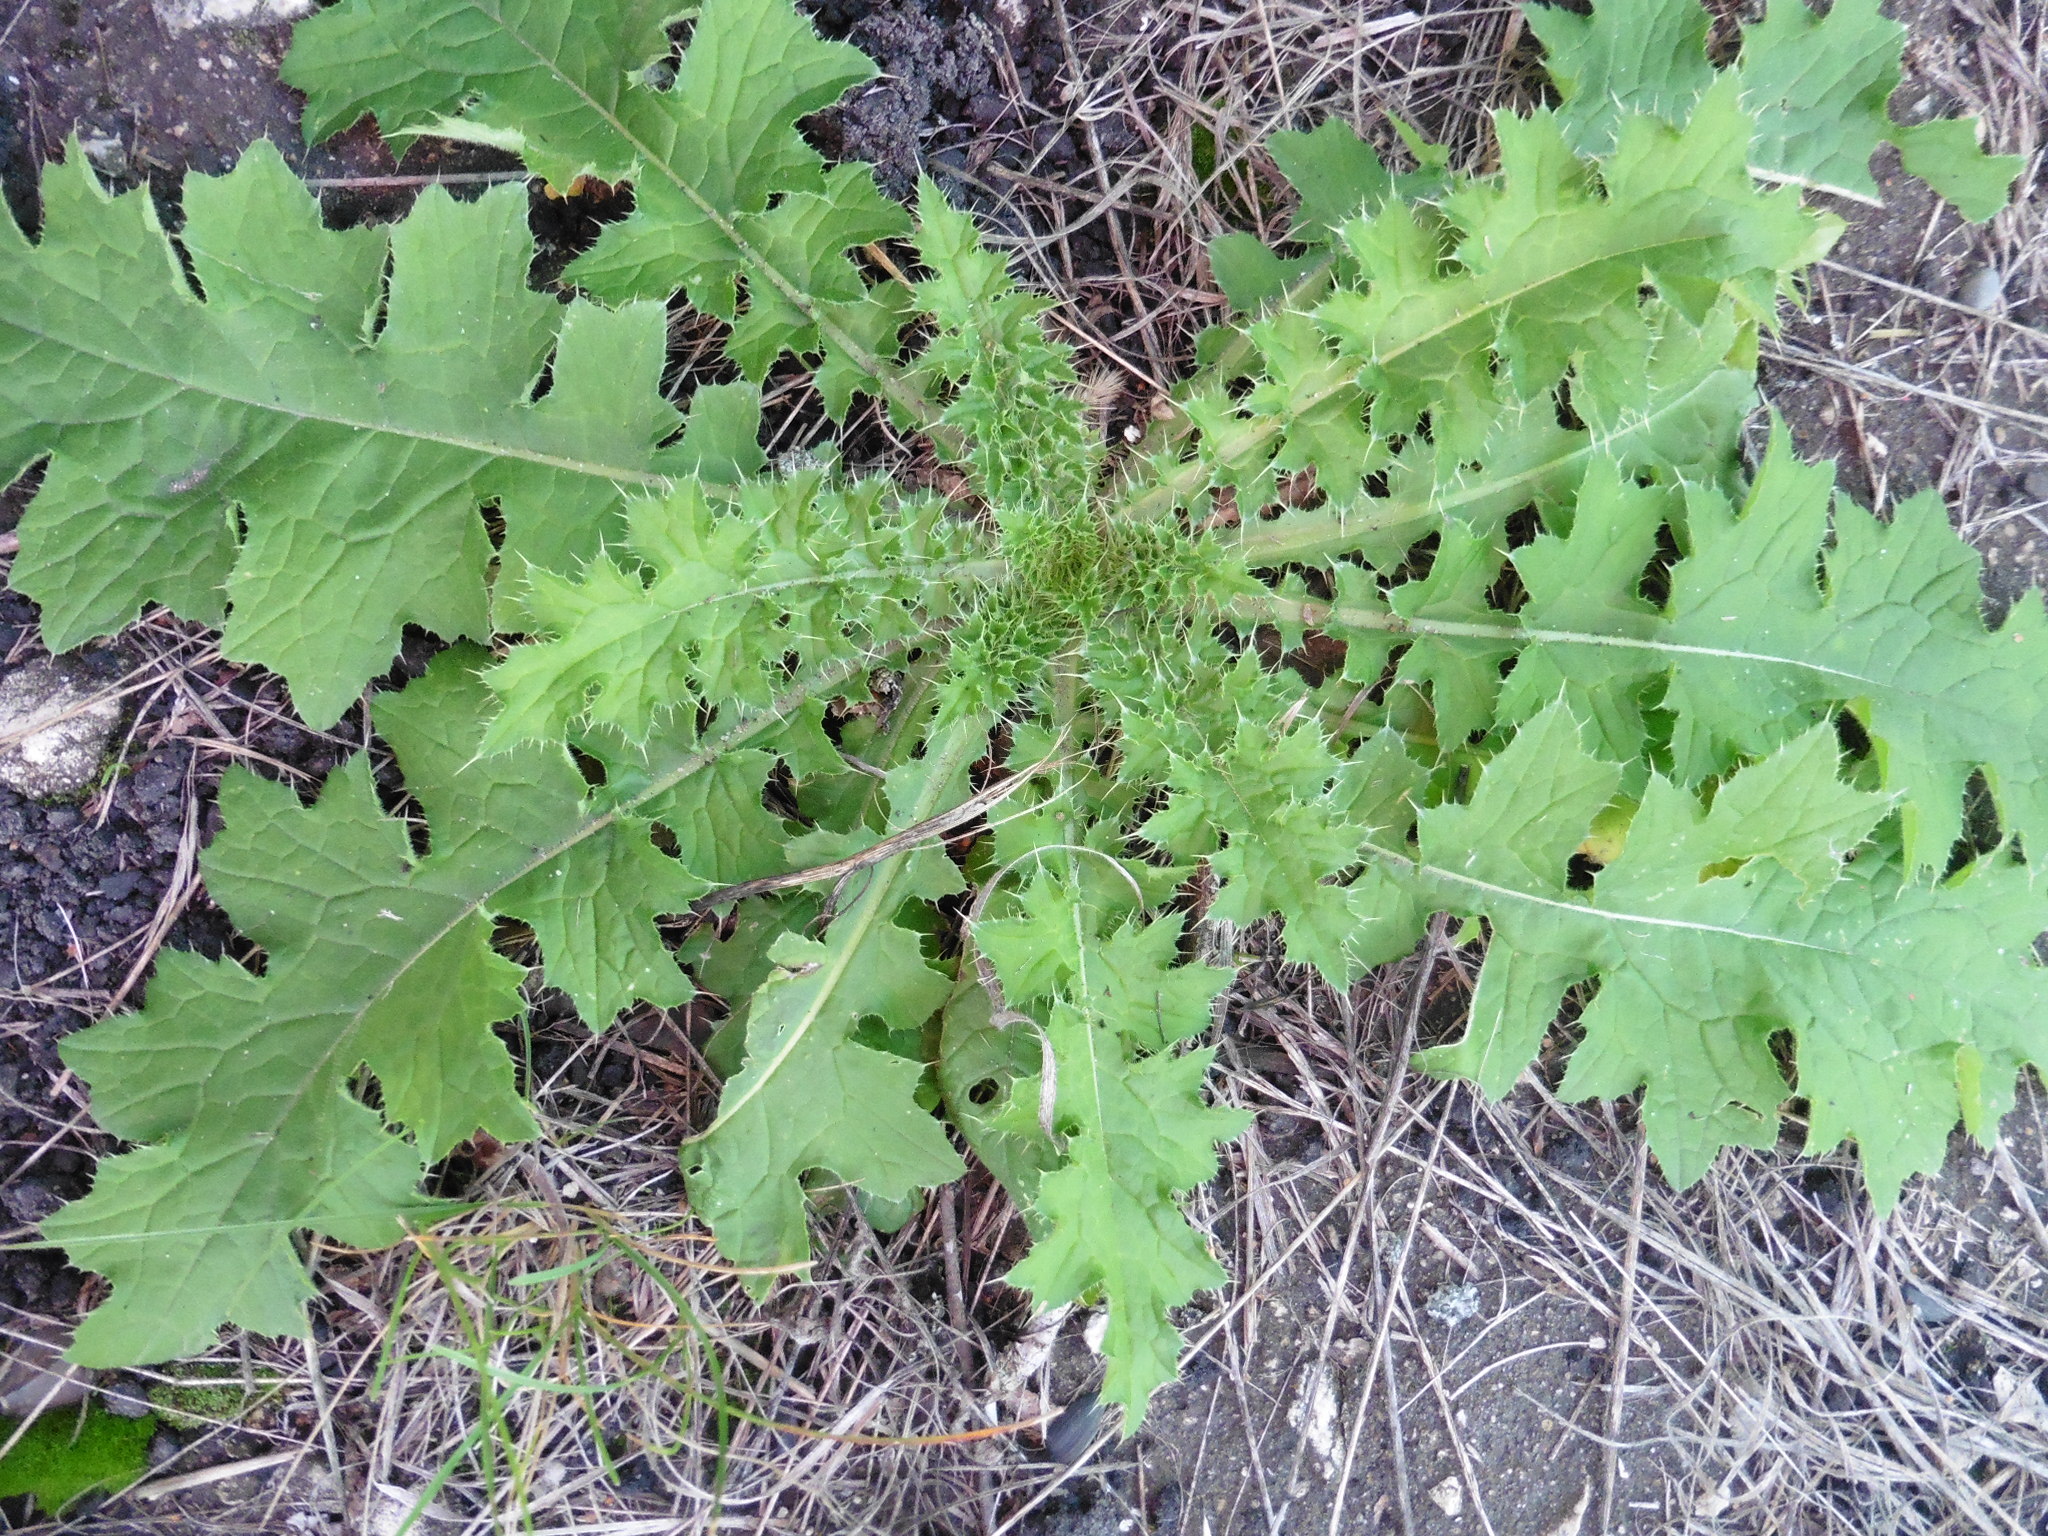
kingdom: Plantae
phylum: Tracheophyta
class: Magnoliopsida
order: Asterales
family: Asteraceae
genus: Carduus
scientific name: Carduus crispus
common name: Welted thistle
